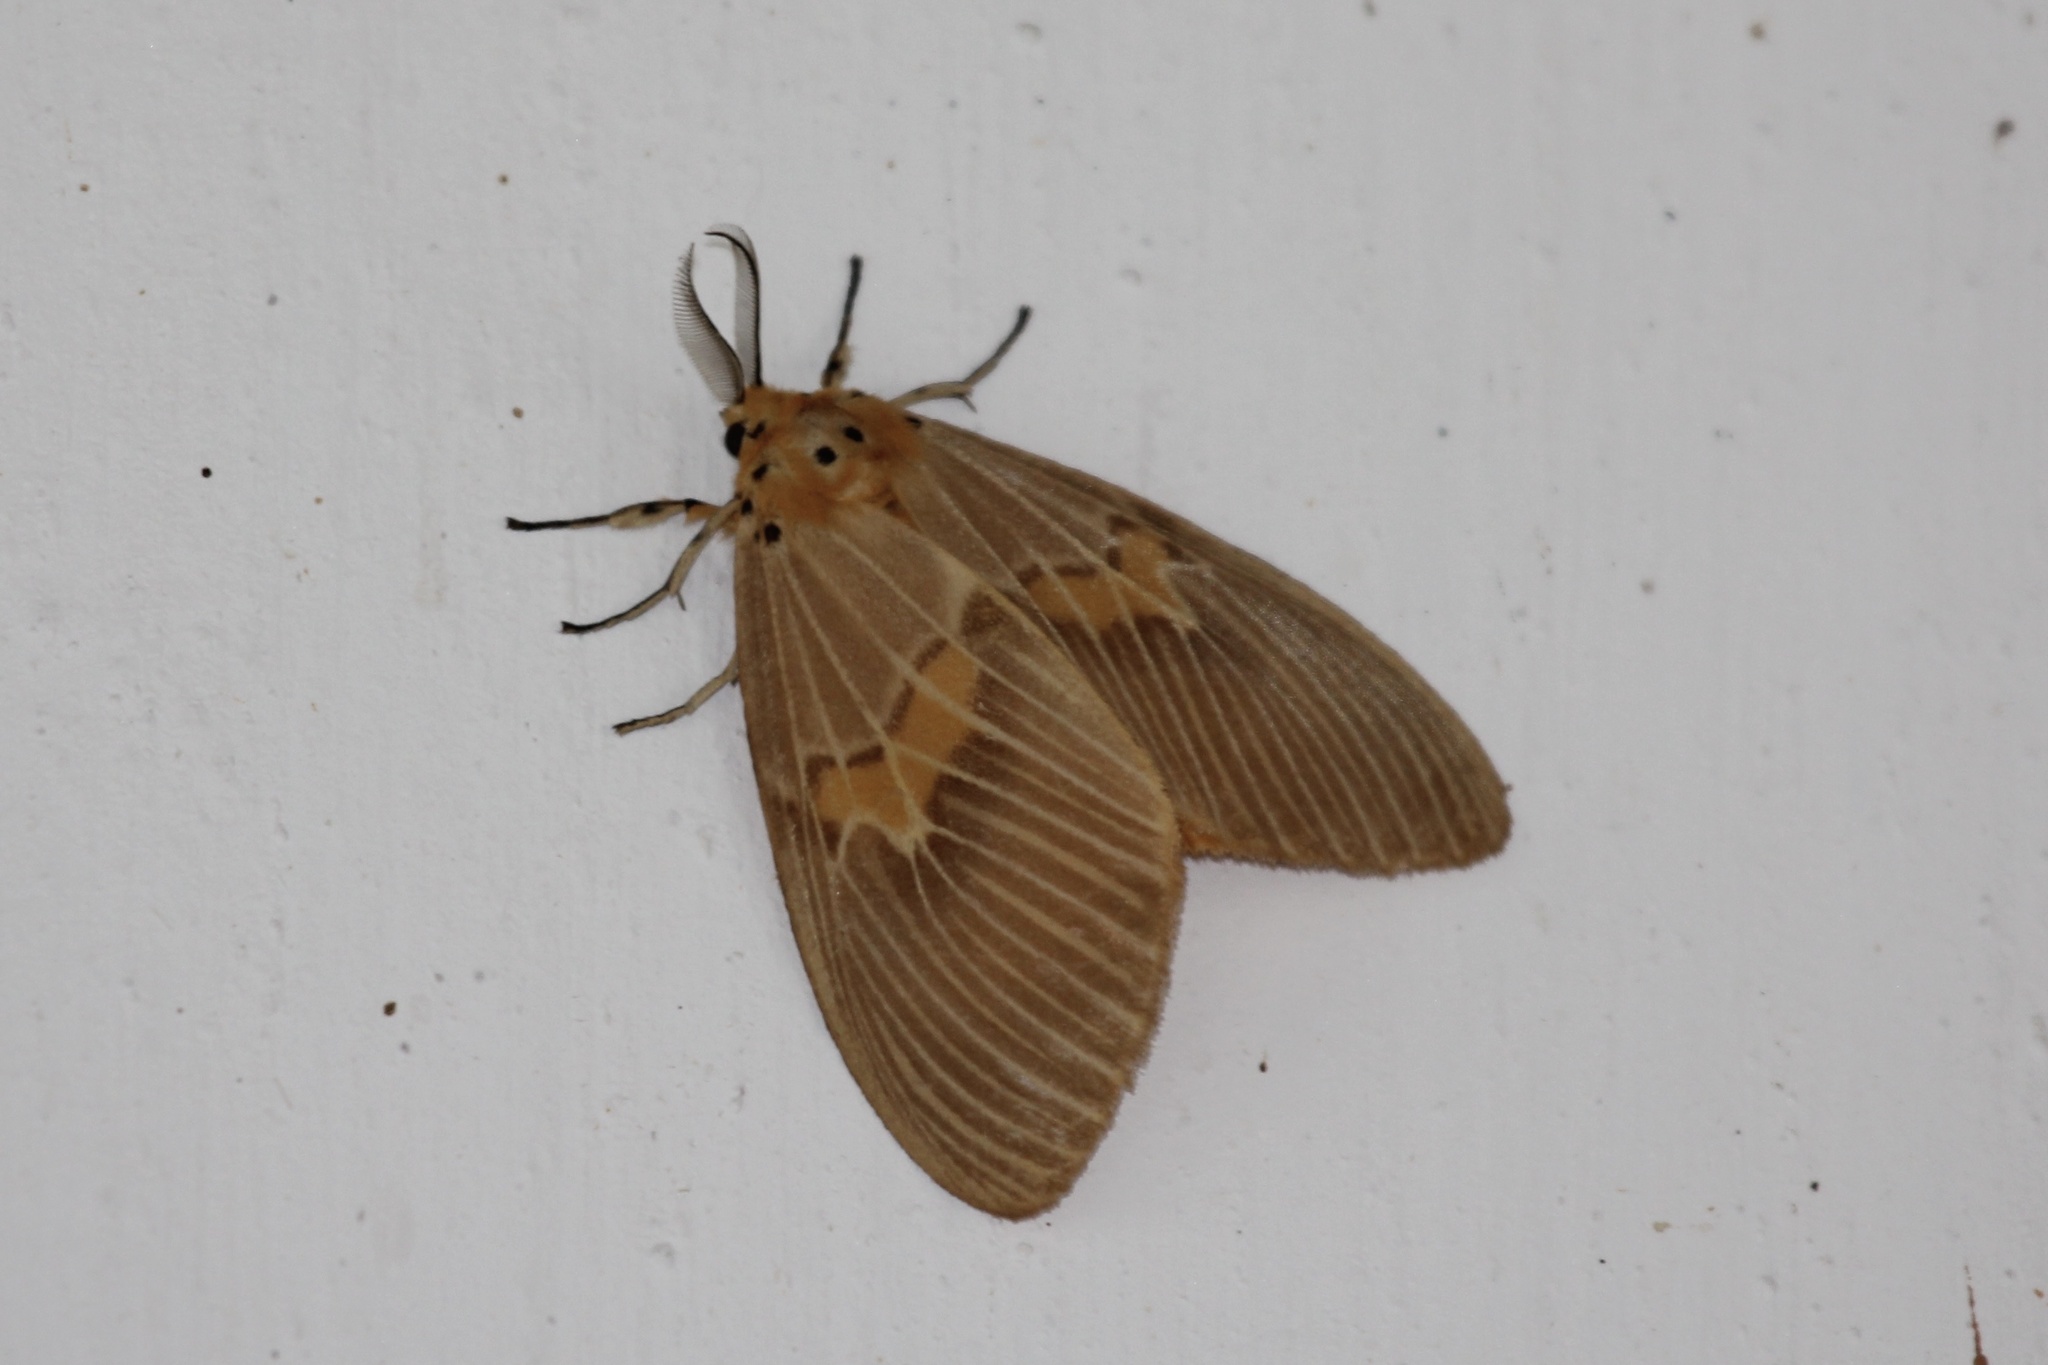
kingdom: Animalia
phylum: Arthropoda
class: Insecta
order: Lepidoptera
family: Erebidae
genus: Cispia
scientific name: Cispia punctifascia
